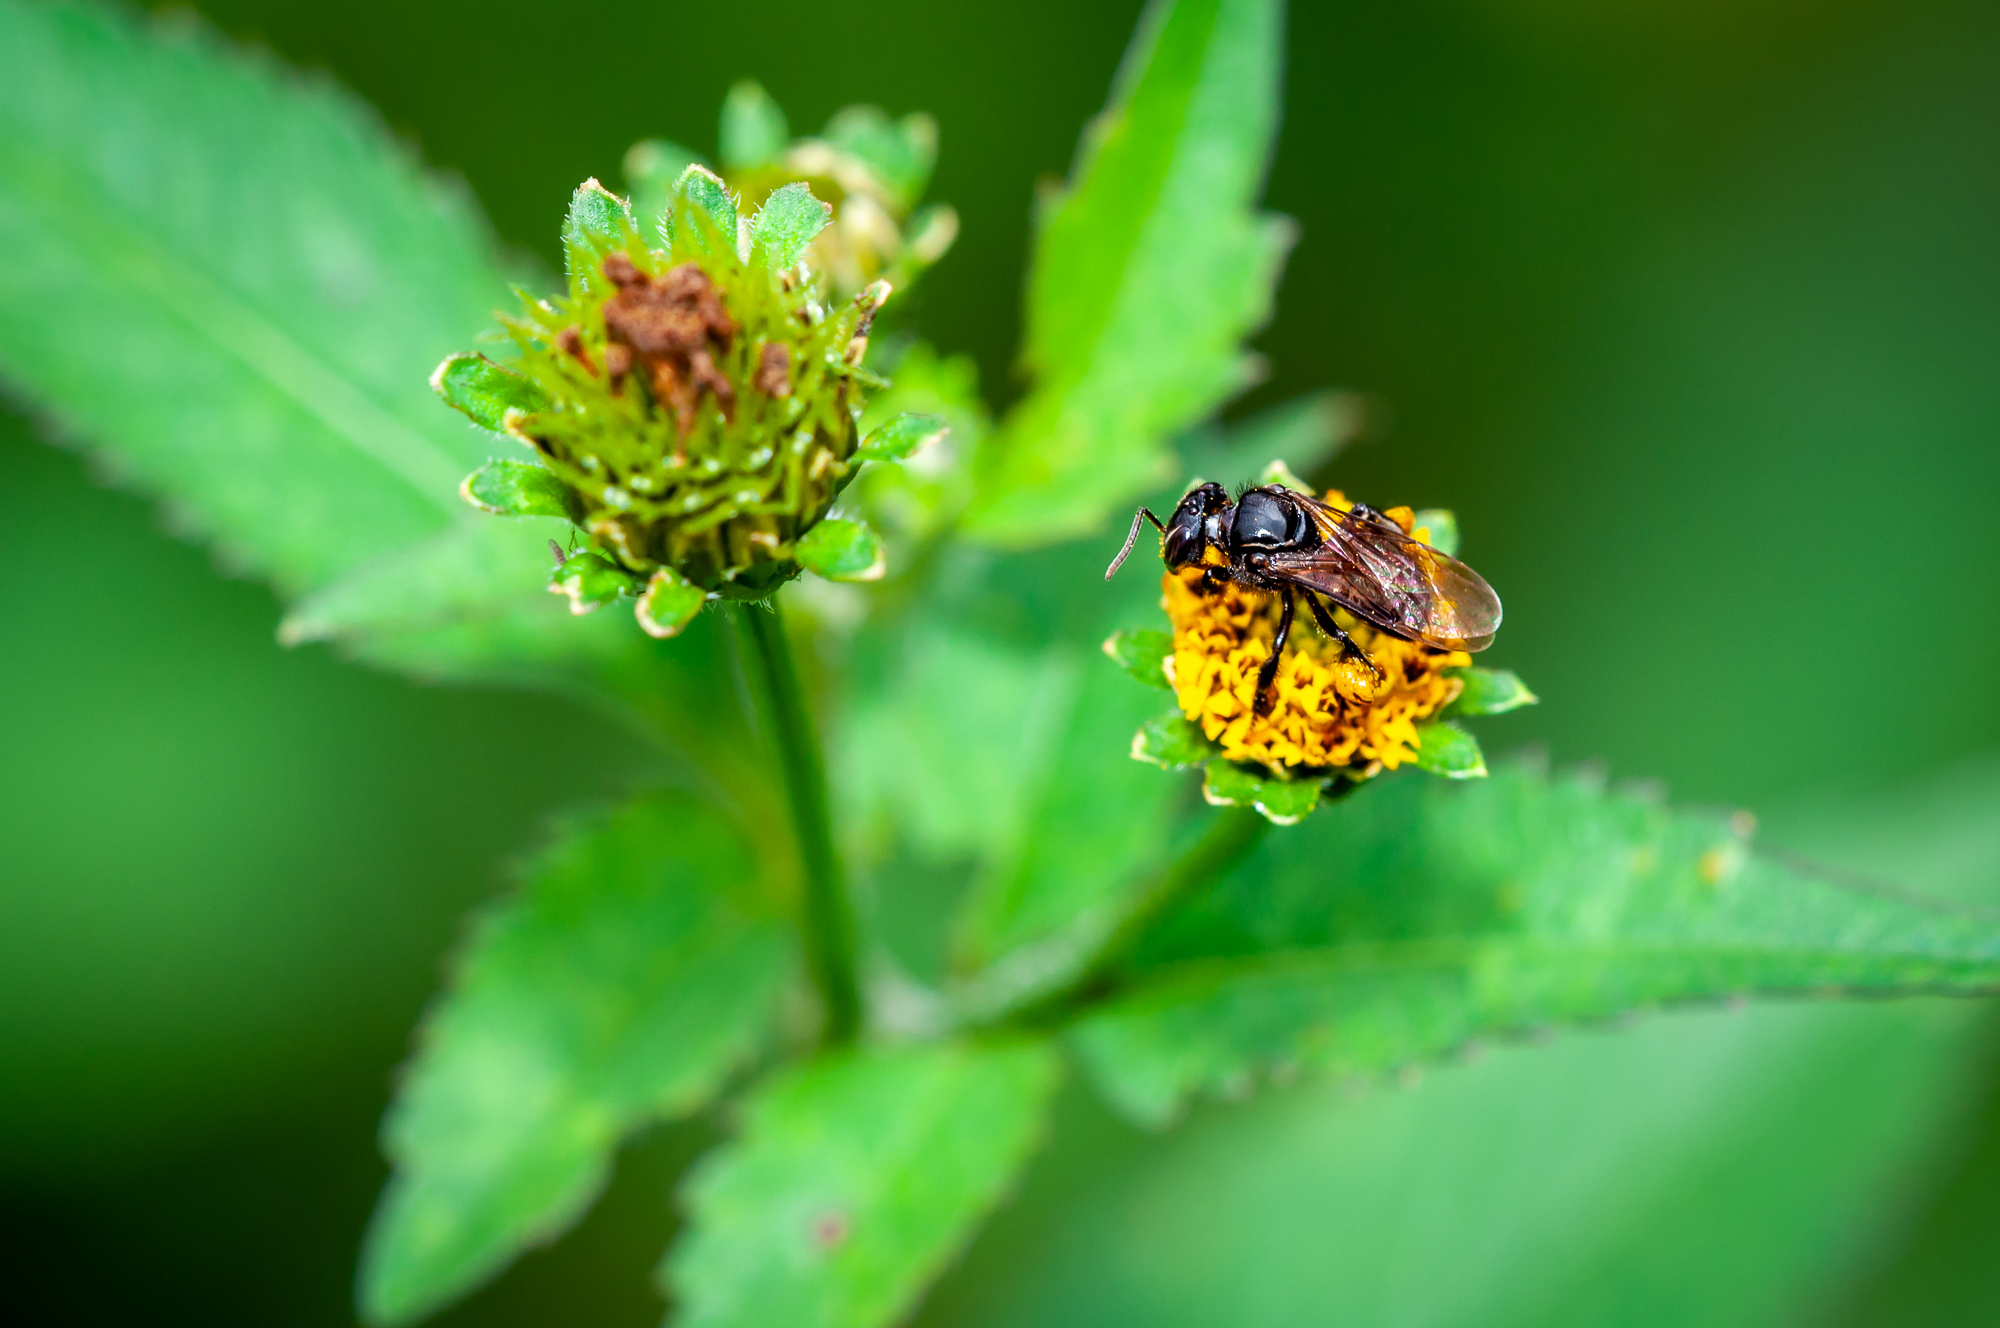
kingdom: Animalia
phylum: Arthropoda
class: Insecta
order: Hymenoptera
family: Apidae
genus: Partamona
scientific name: Partamona
